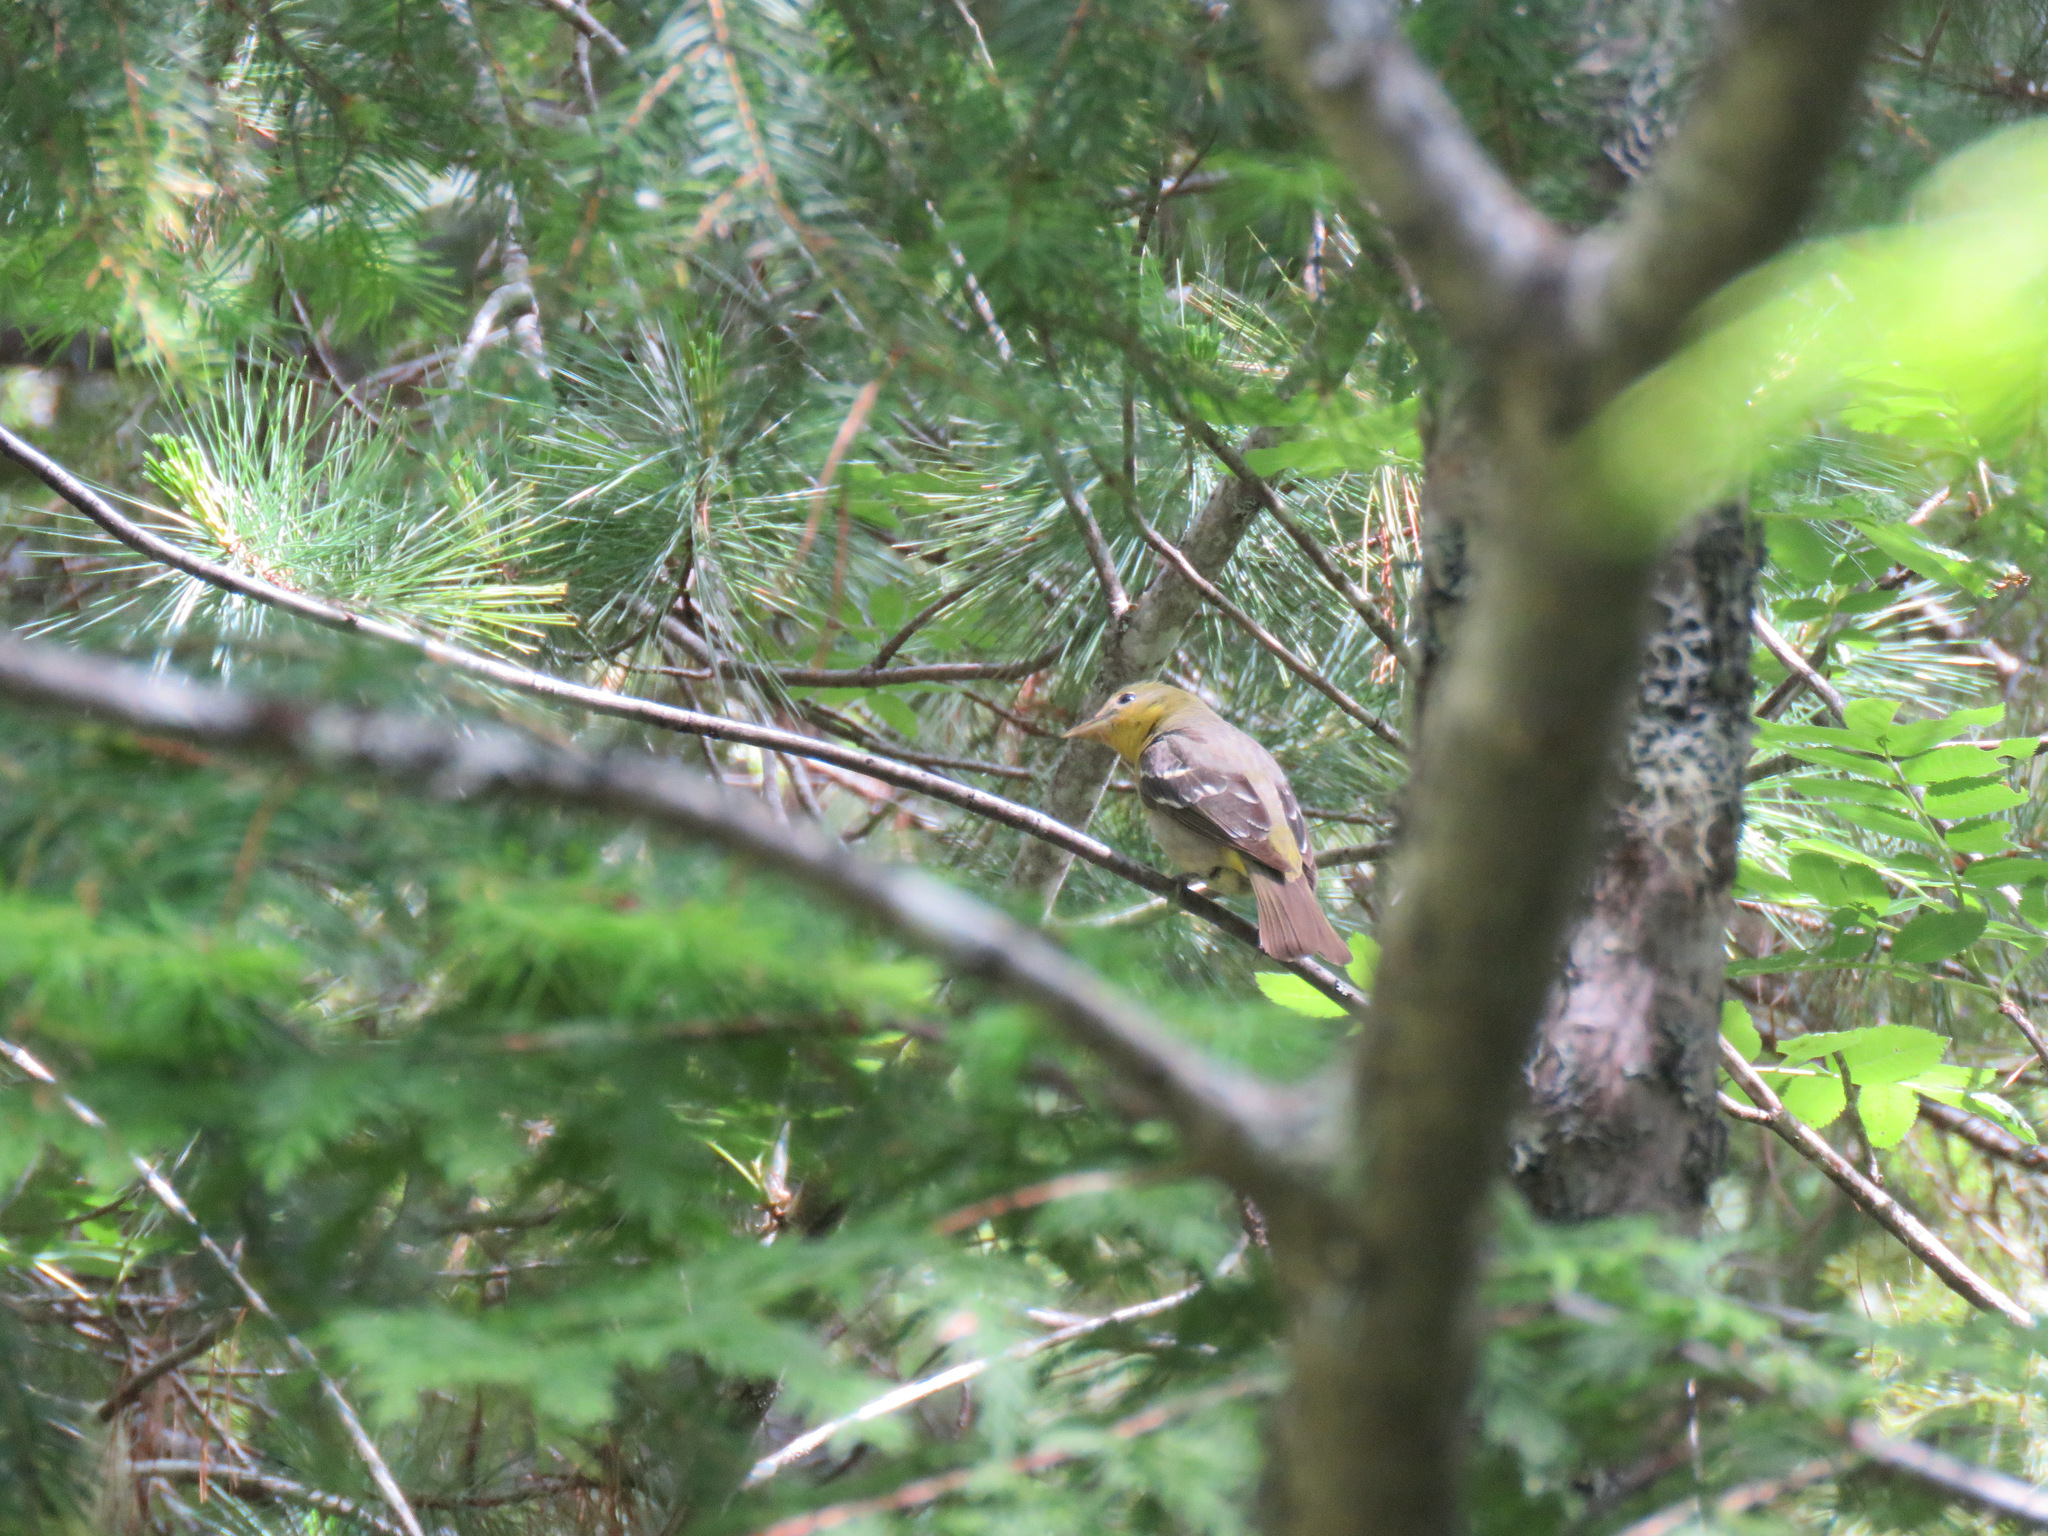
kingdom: Animalia
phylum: Chordata
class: Aves
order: Passeriformes
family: Cardinalidae
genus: Piranga
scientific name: Piranga ludoviciana
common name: Western tanager
